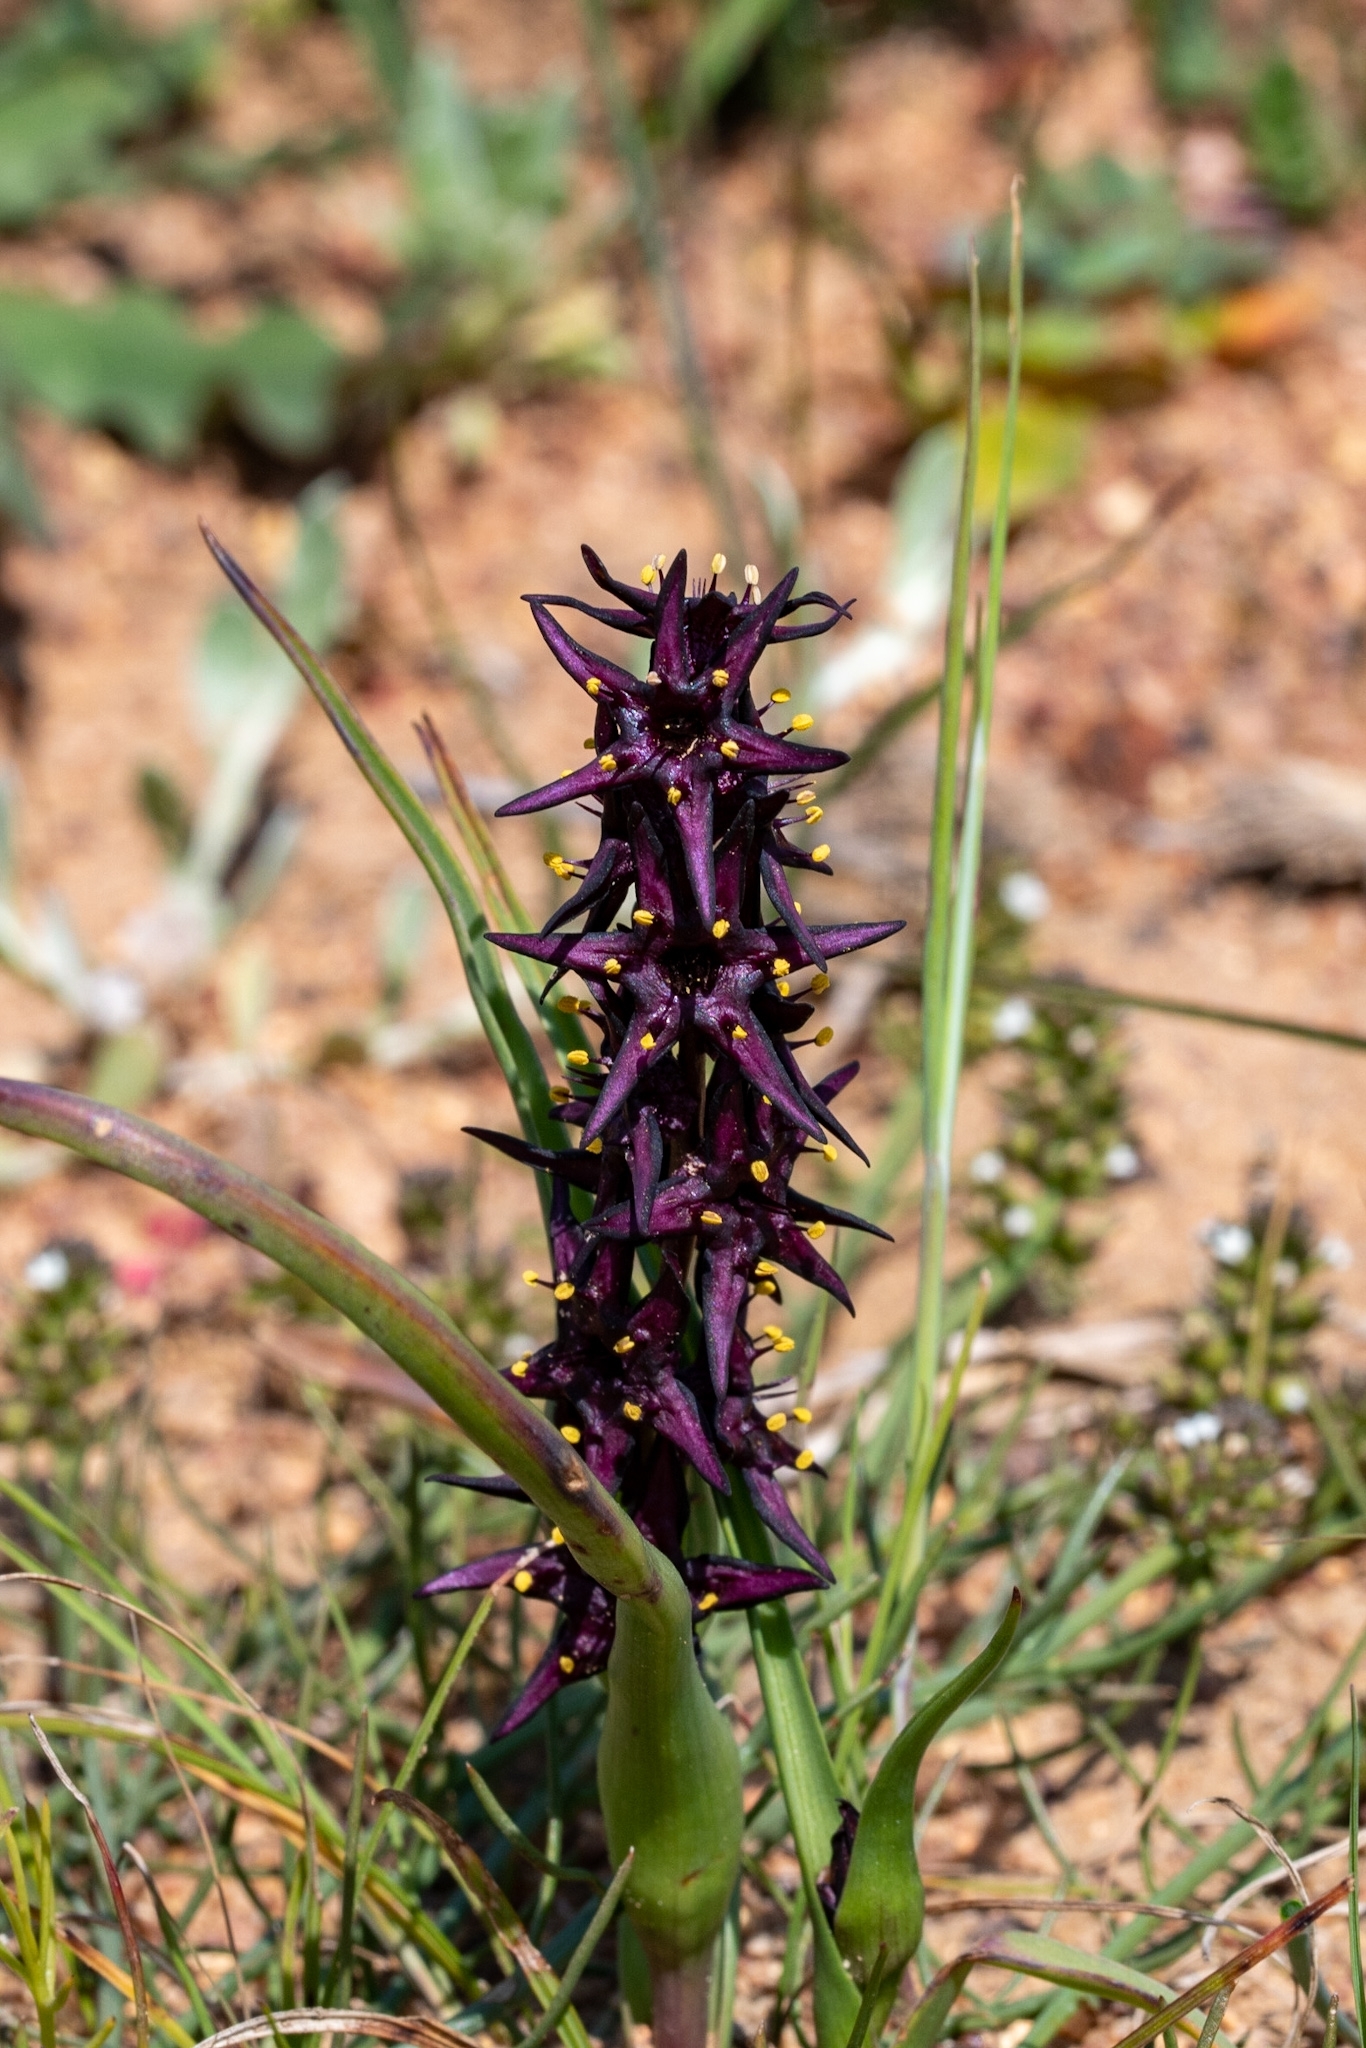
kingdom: Plantae
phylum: Tracheophyta
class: Liliopsida
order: Liliales
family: Colchicaceae
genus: Wurmbea
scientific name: Wurmbea marginata
